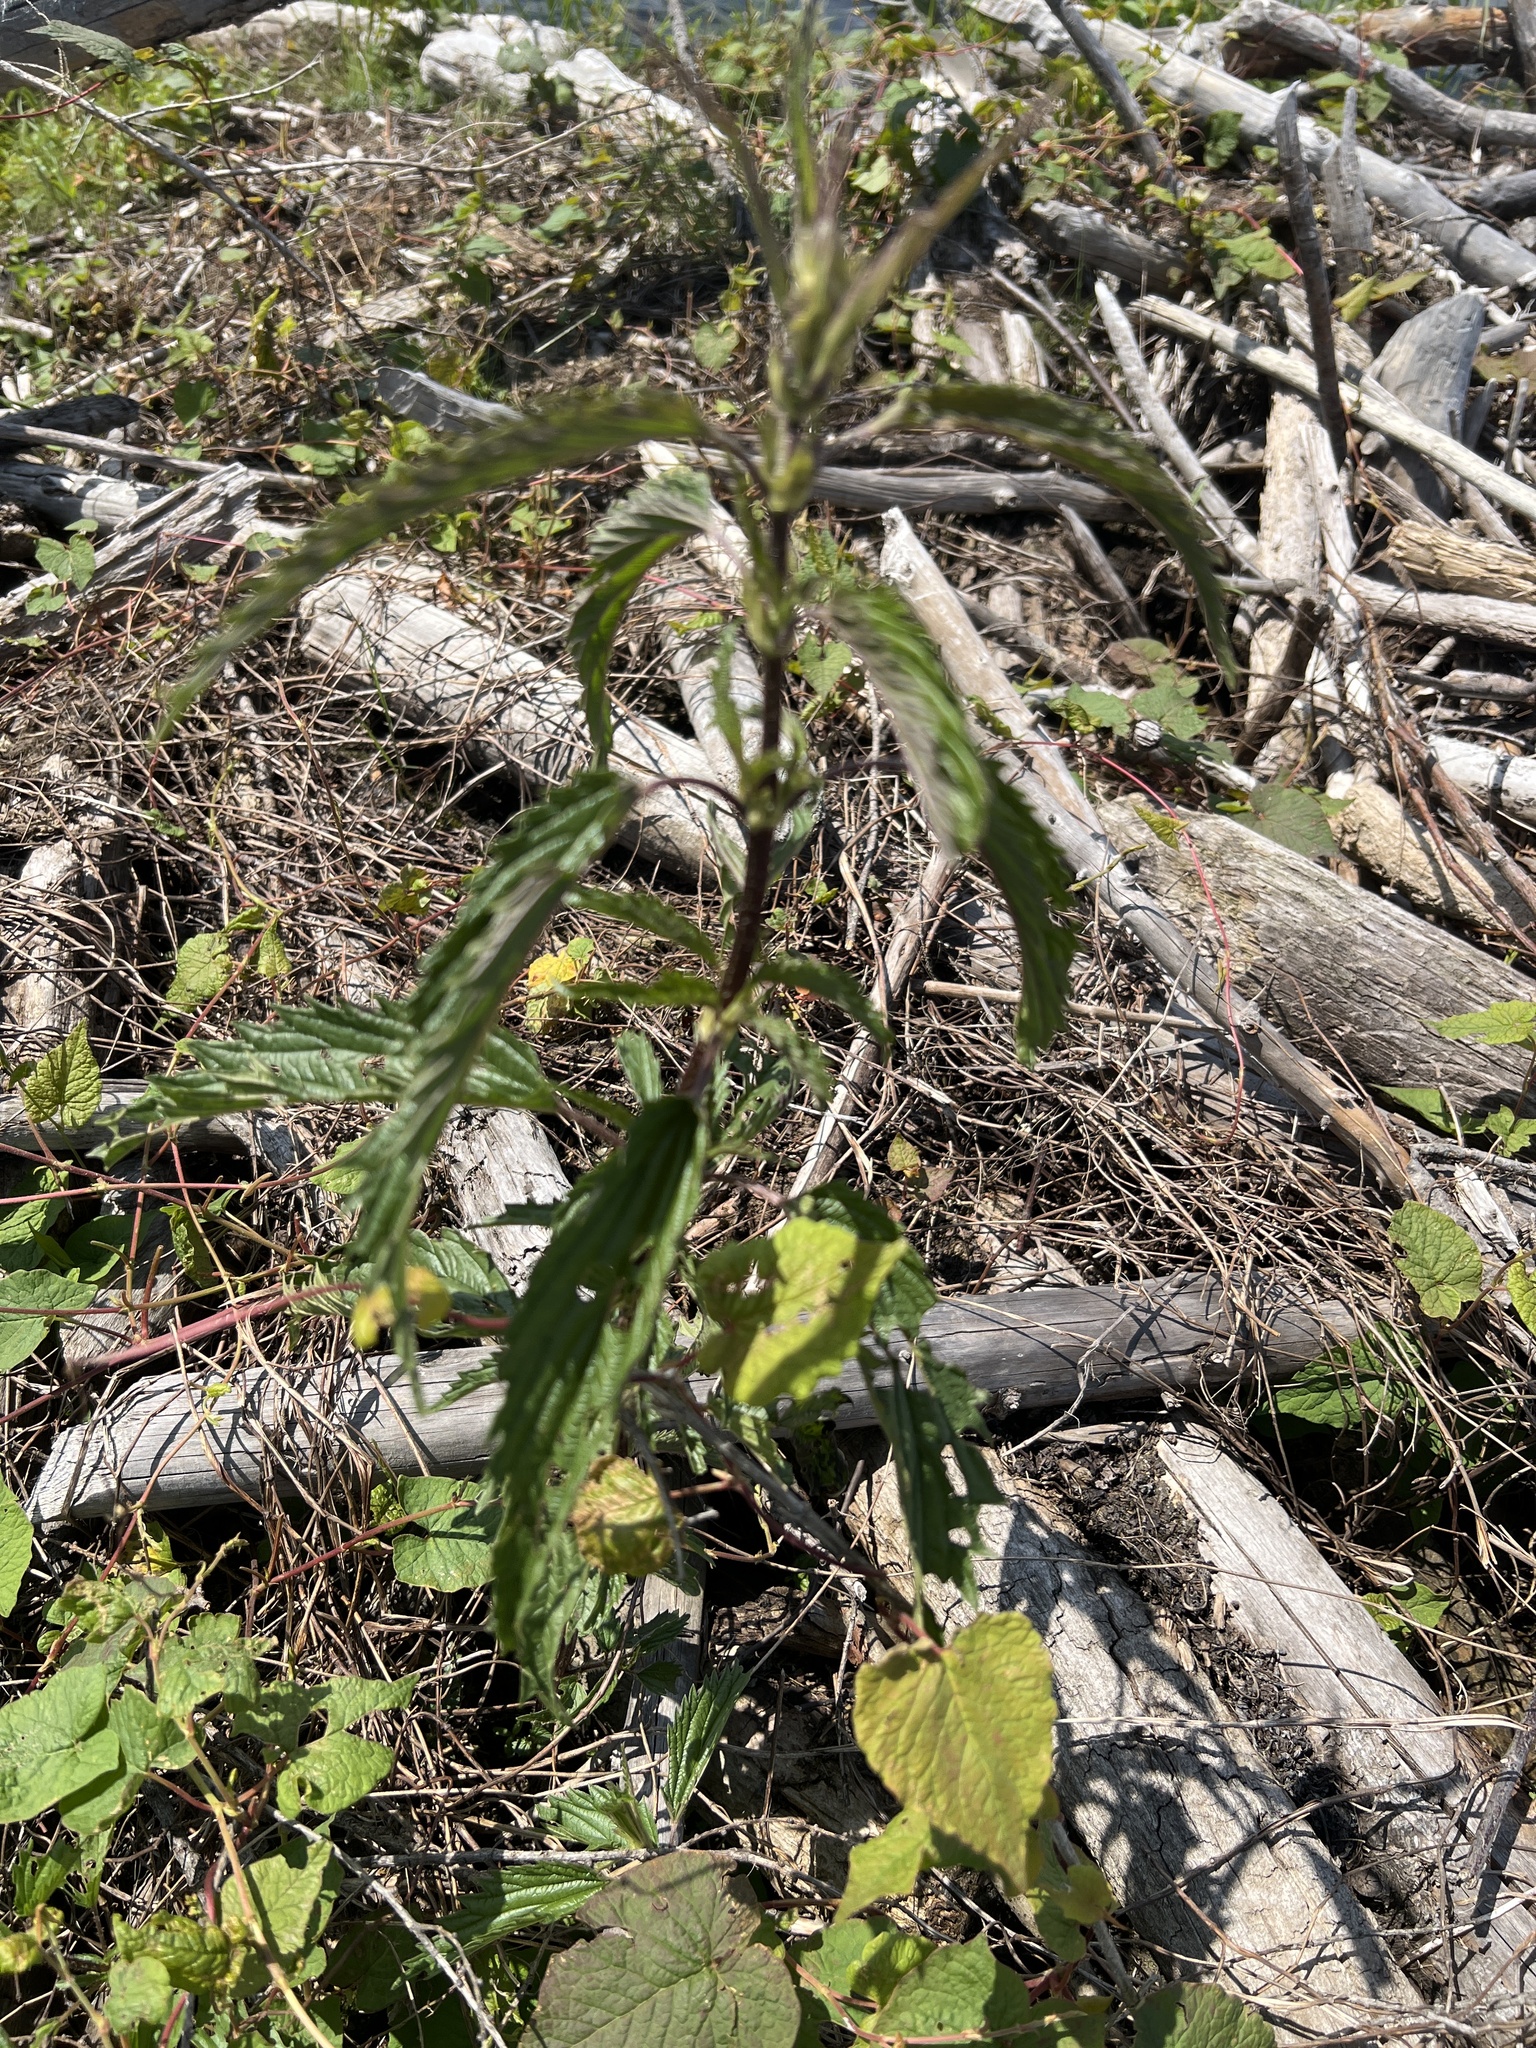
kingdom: Plantae
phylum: Tracheophyta
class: Magnoliopsida
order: Rosales
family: Urticaceae
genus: Urtica
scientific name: Urtica dioica
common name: Common nettle
